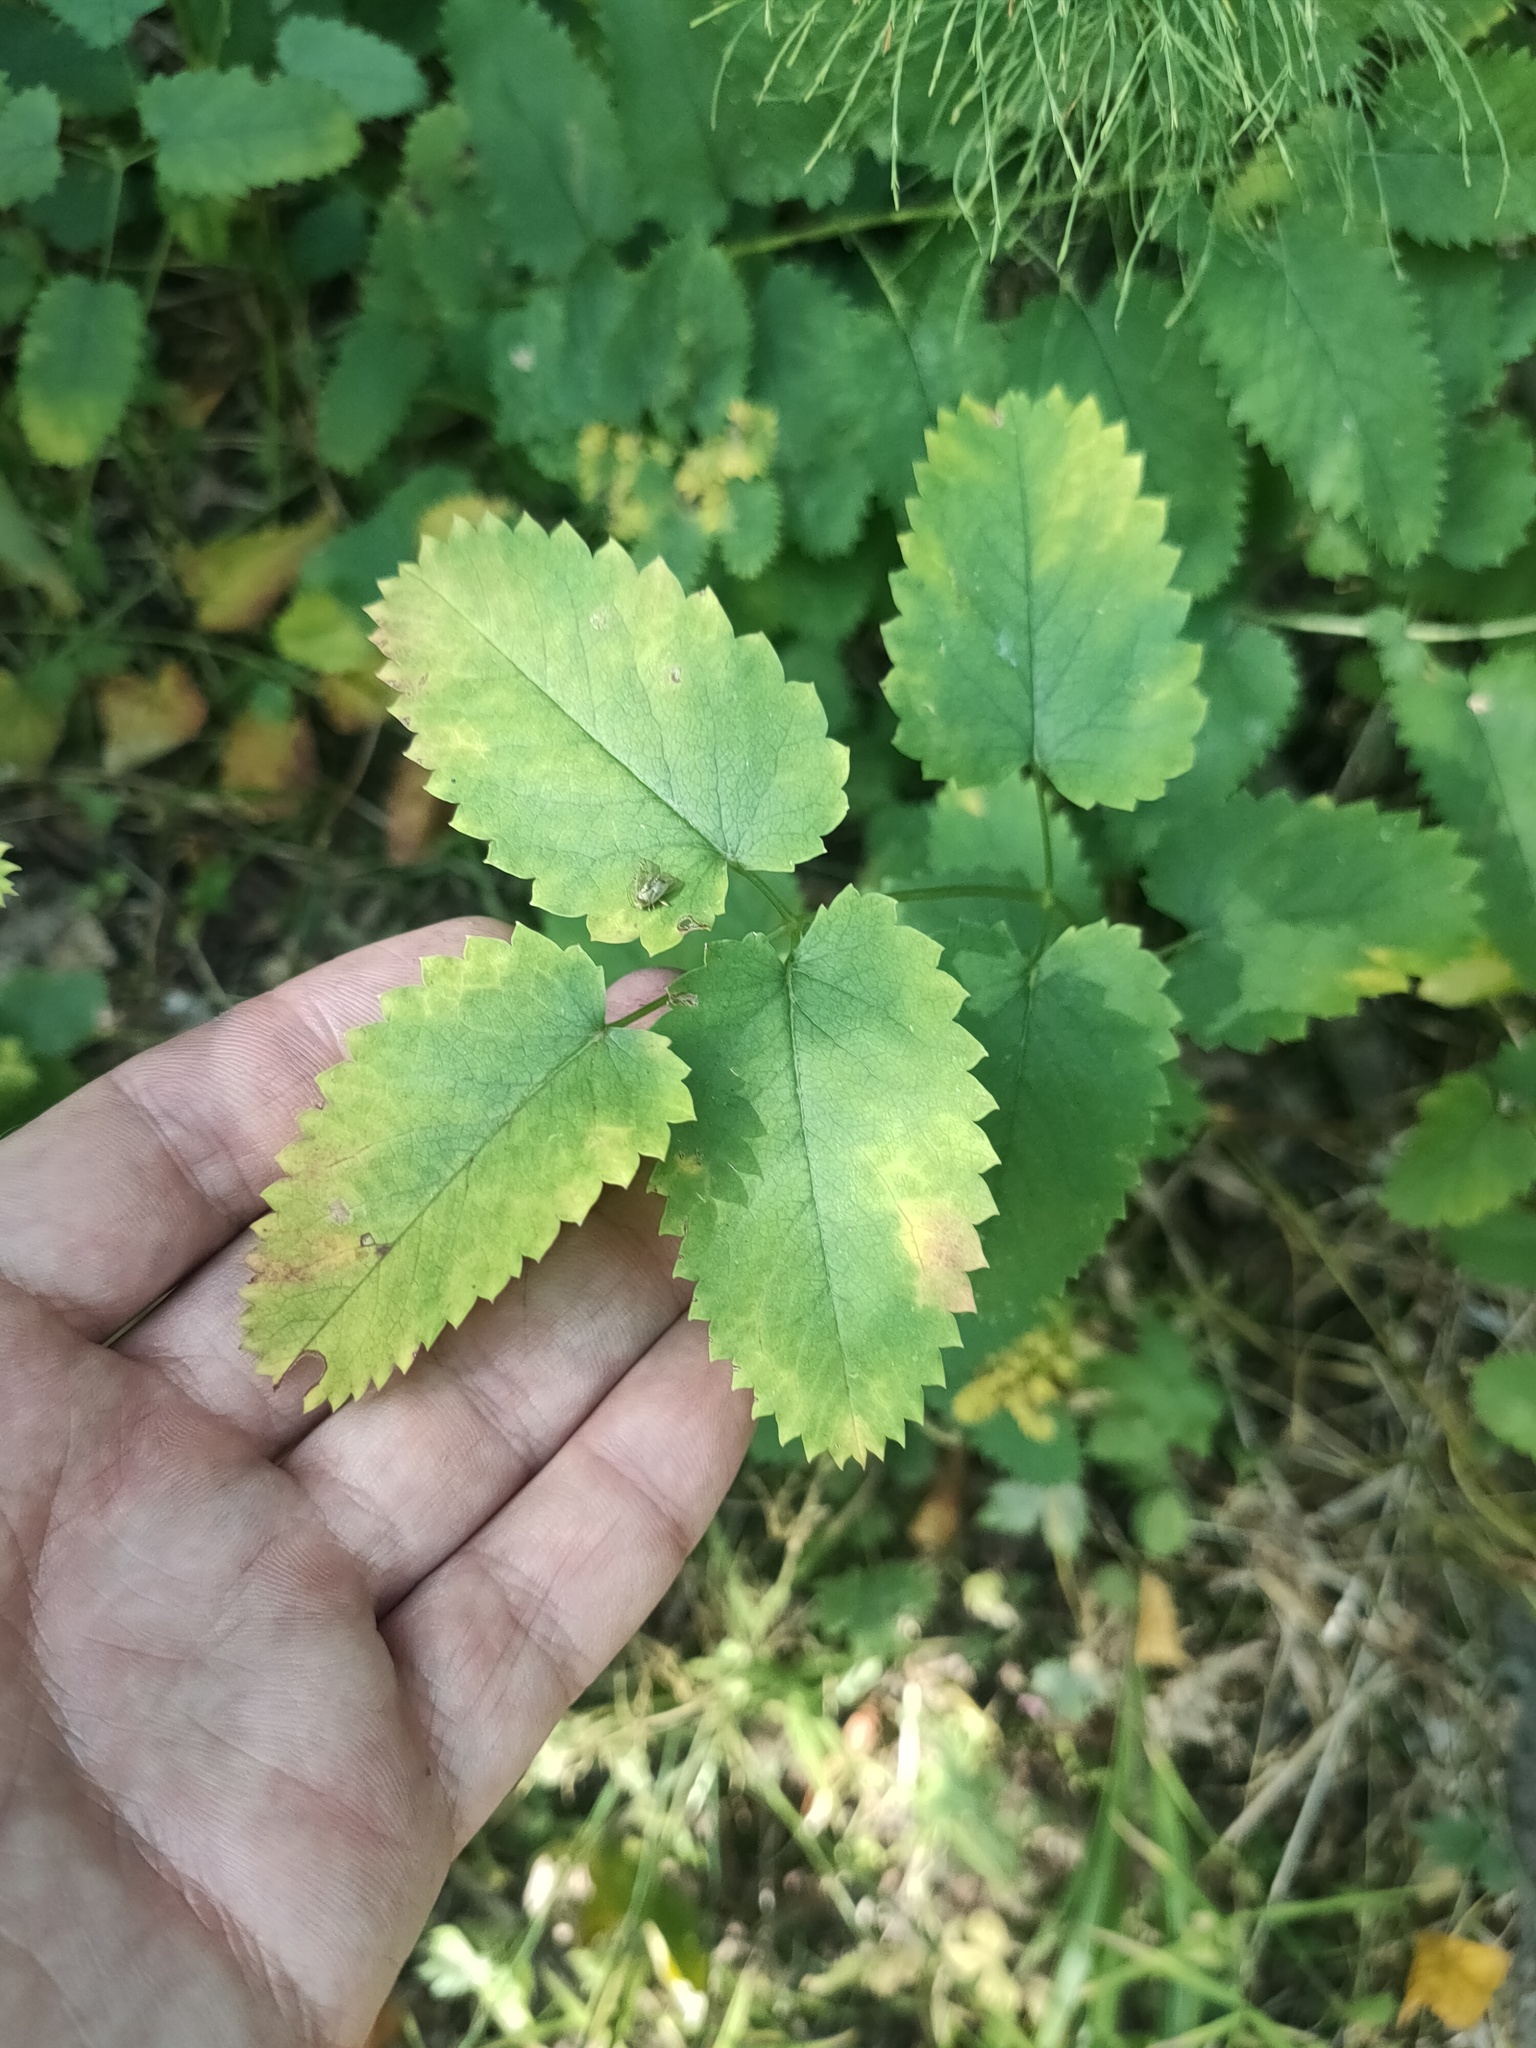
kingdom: Plantae
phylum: Tracheophyta
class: Magnoliopsida
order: Rosales
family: Rosaceae
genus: Sanguisorba
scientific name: Sanguisorba officinalis
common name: Great burnet
